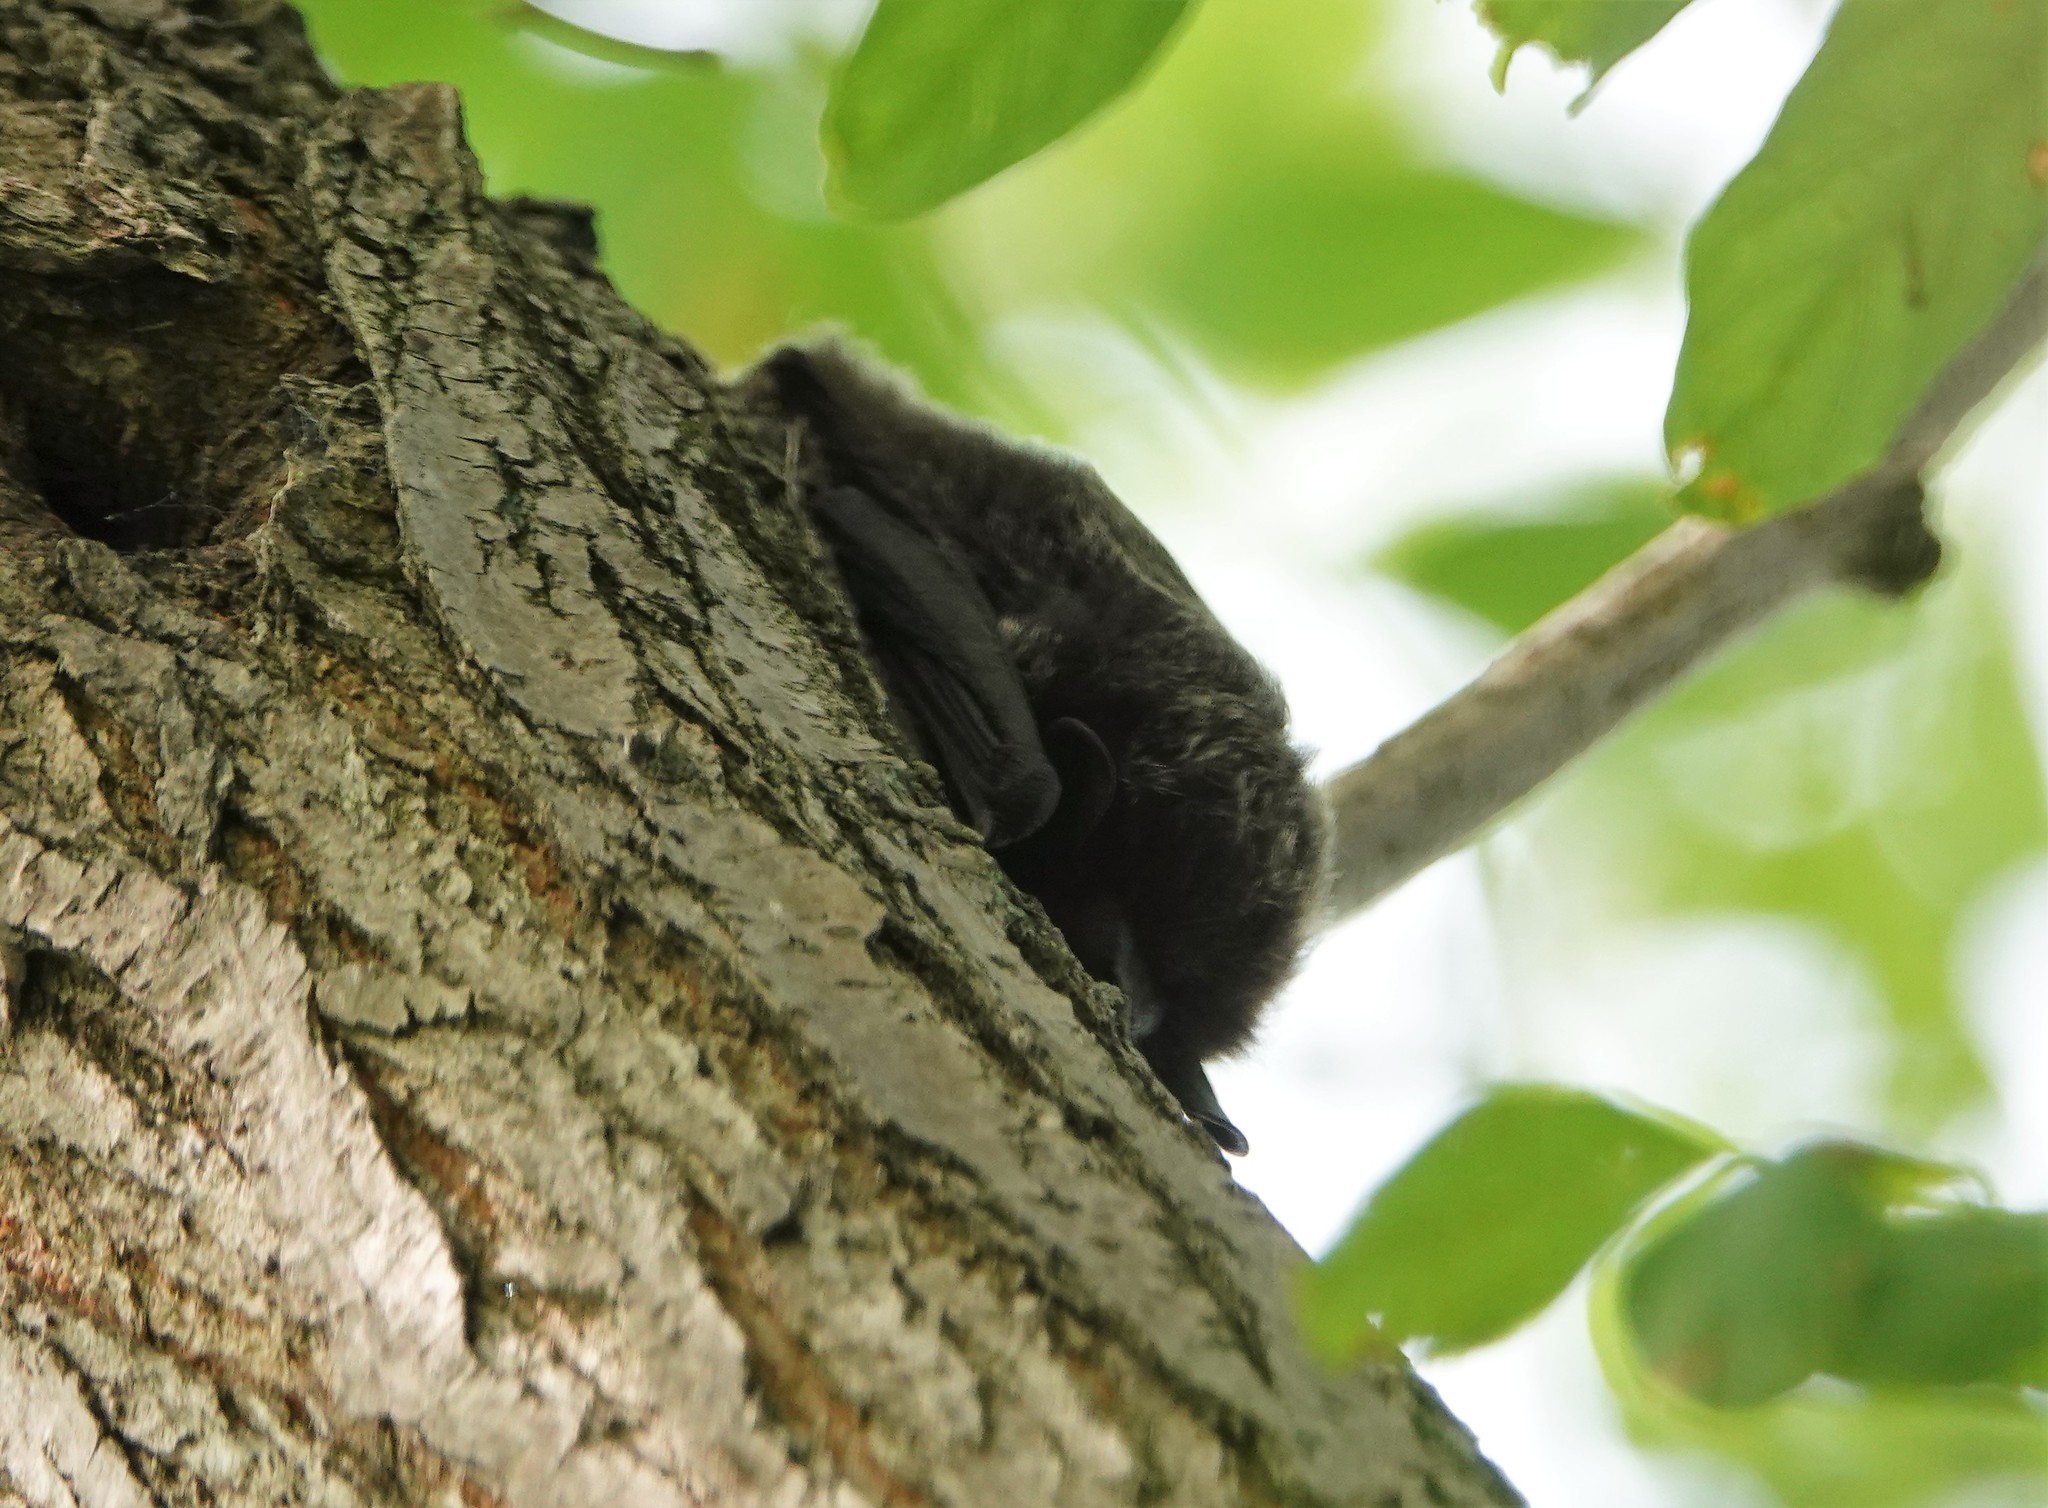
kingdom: Animalia
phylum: Chordata
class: Mammalia
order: Chiroptera
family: Vespertilionidae
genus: Lasionycteris
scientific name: Lasionycteris noctivagans
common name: Silver-haired bat
